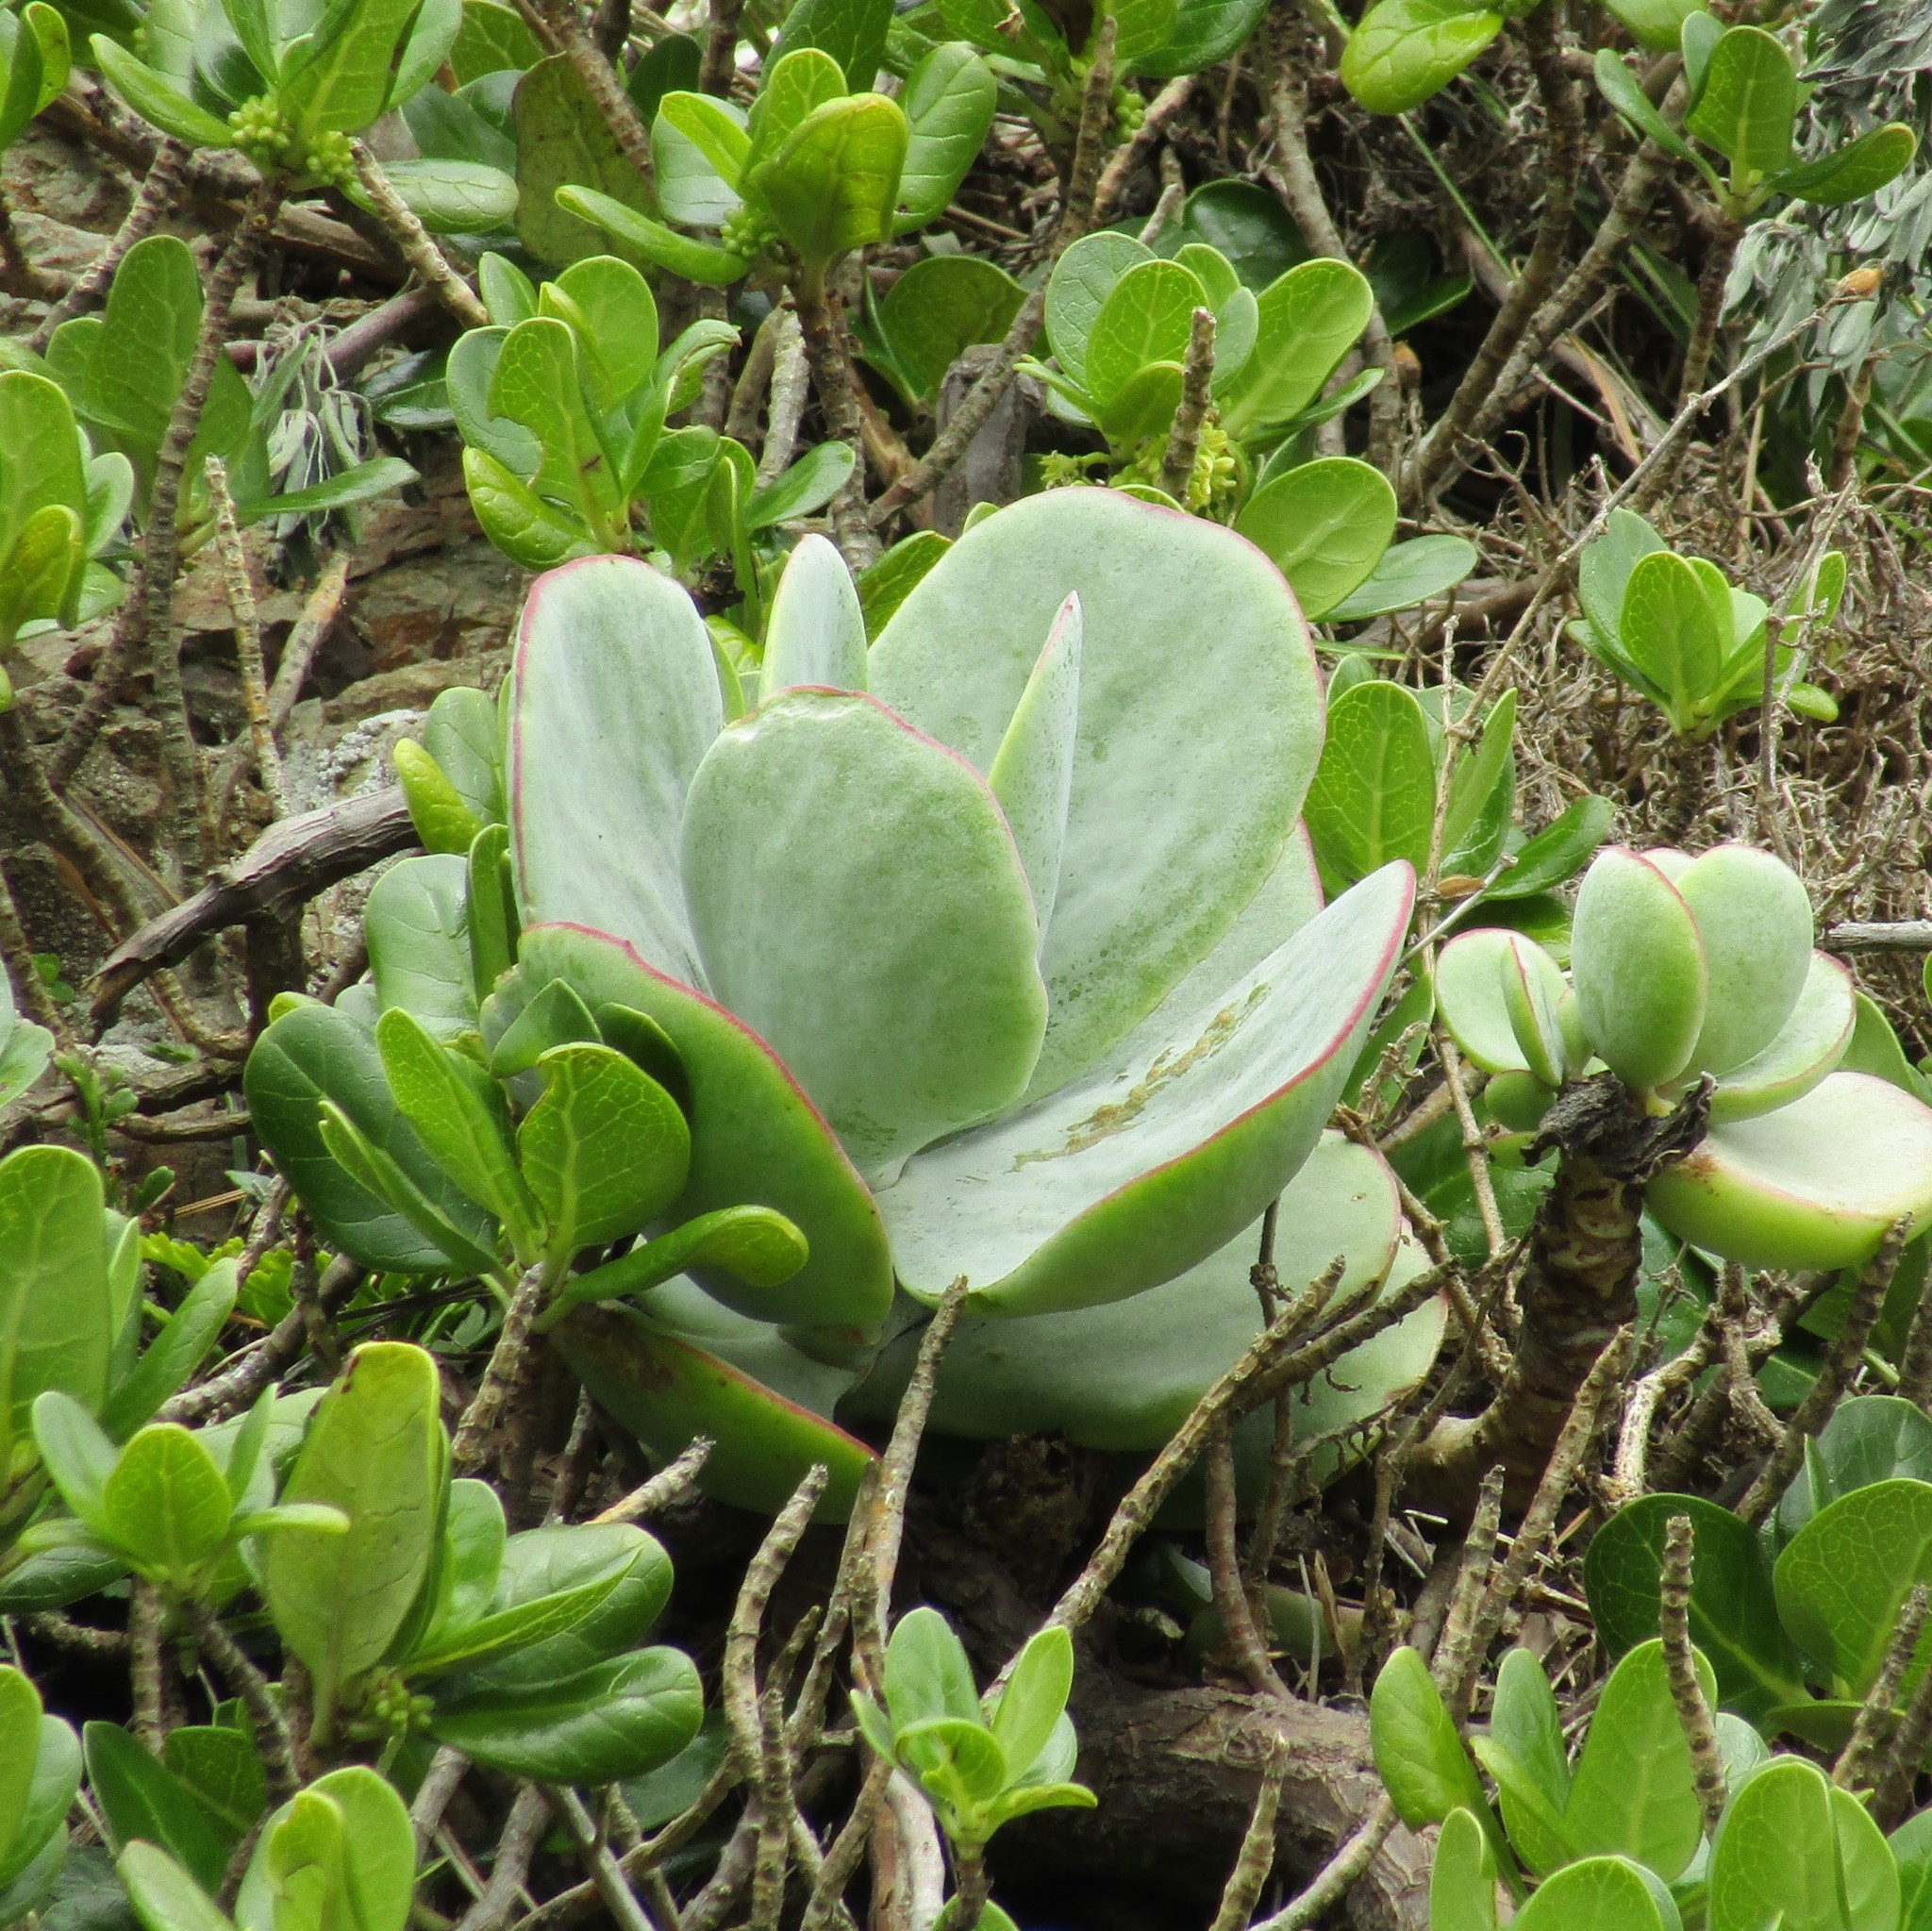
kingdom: Plantae
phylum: Tracheophyta
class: Magnoliopsida
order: Saxifragales
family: Crassulaceae
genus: Cotyledon
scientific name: Cotyledon orbiculata
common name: Pig's ear
